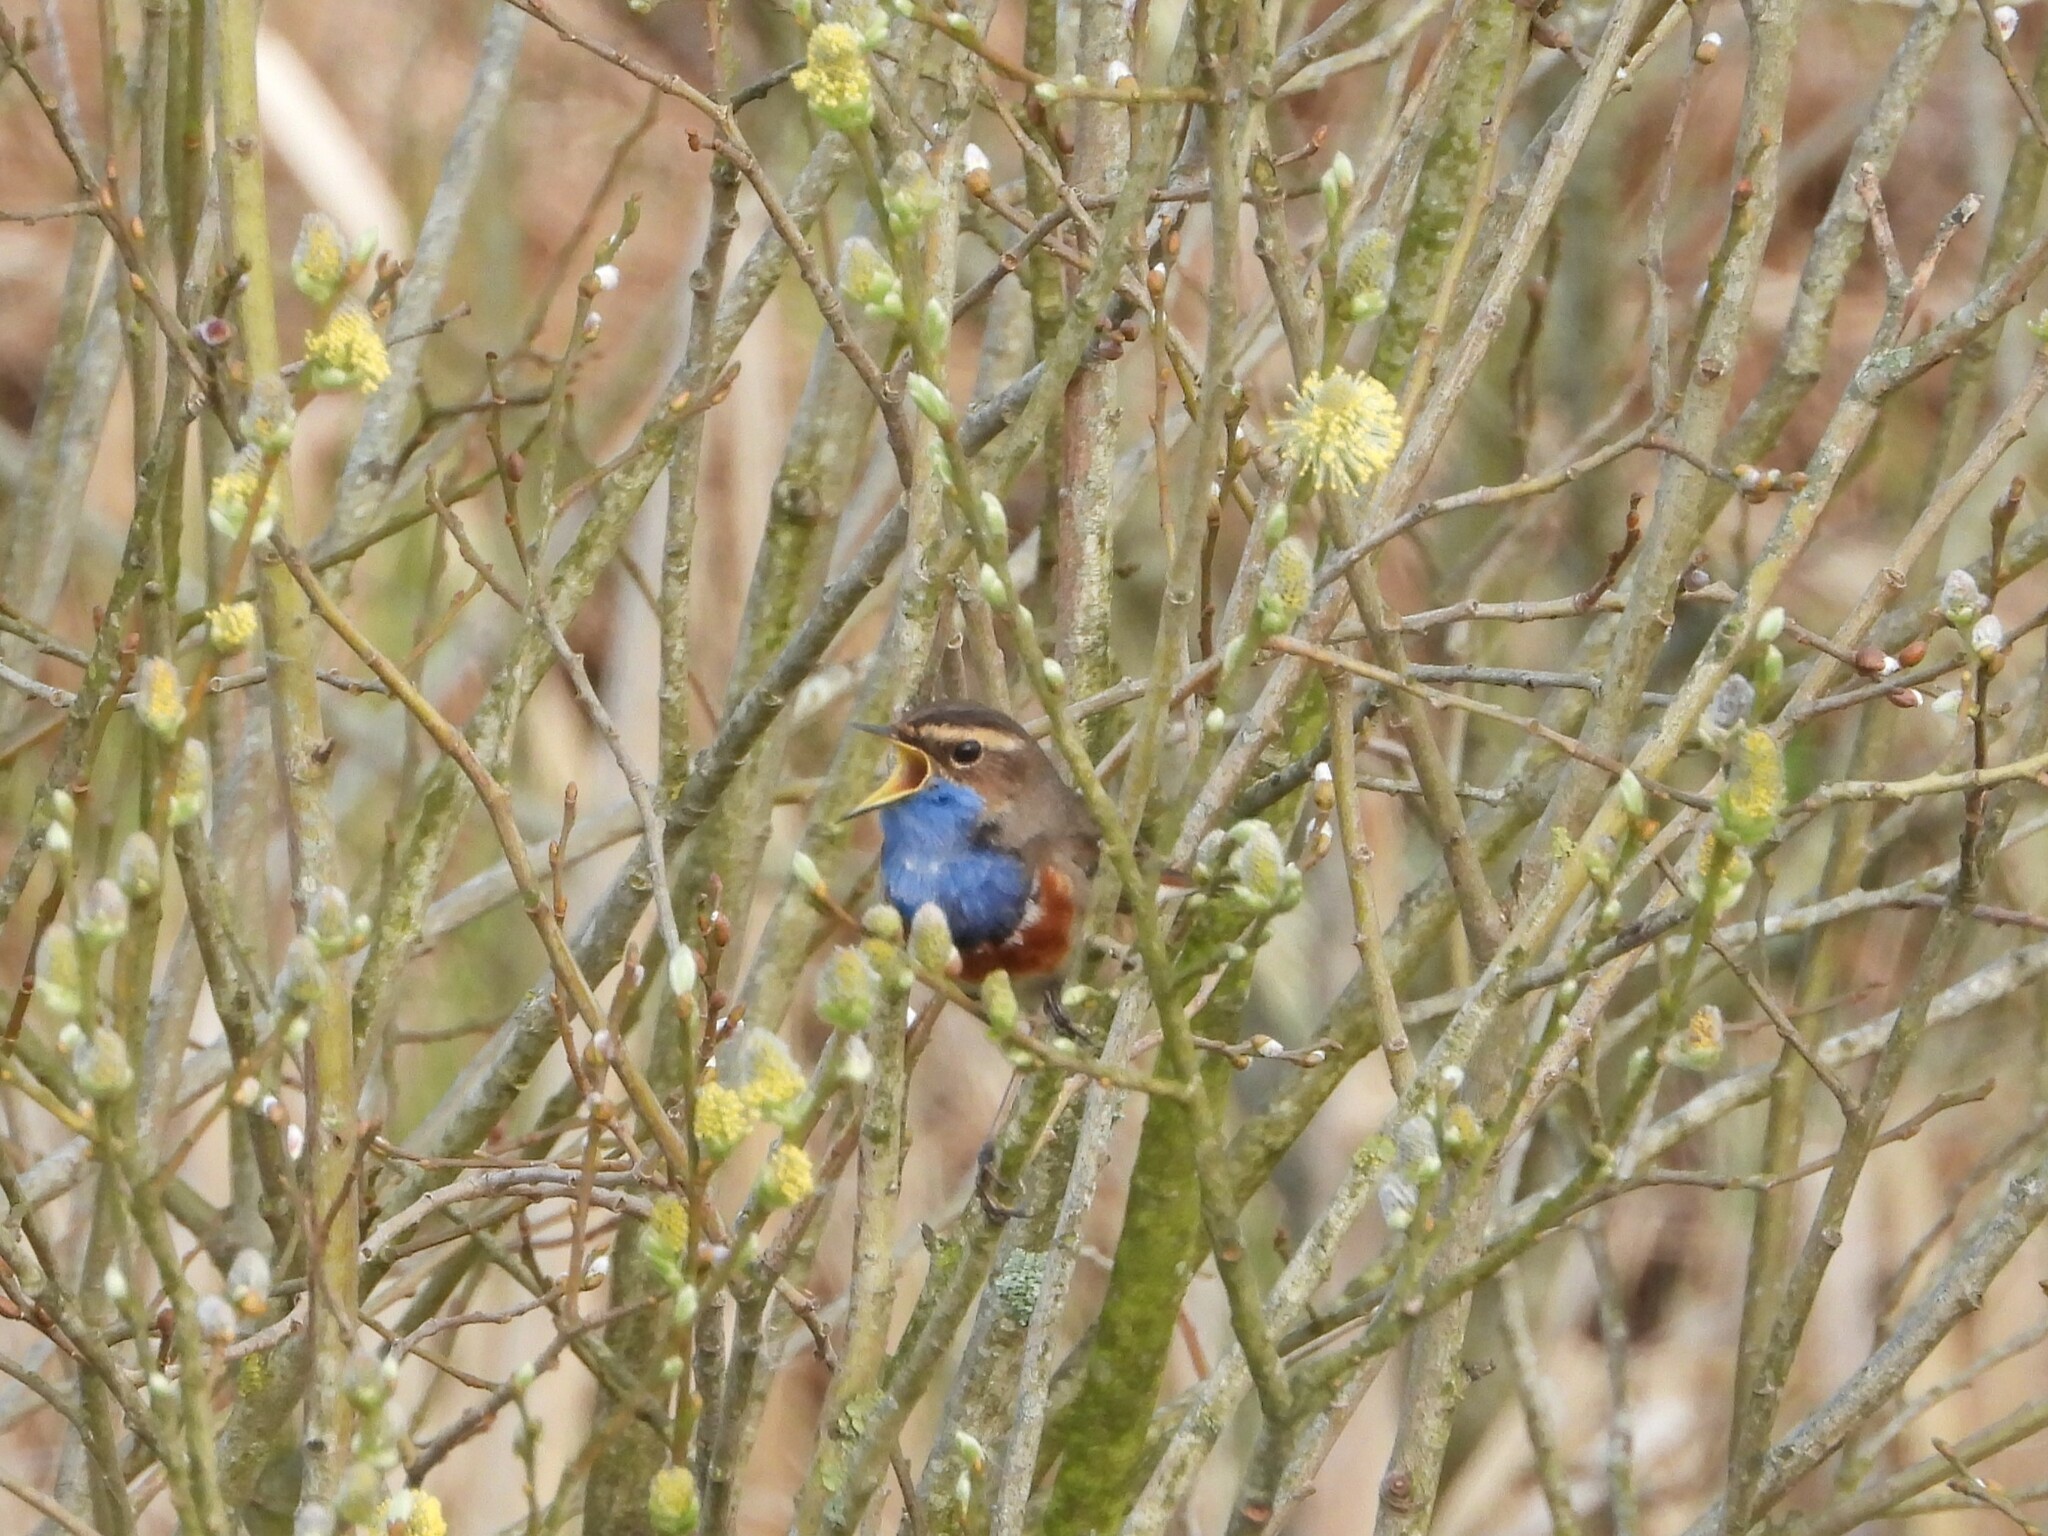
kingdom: Animalia
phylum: Chordata
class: Aves
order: Passeriformes
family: Muscicapidae
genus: Luscinia
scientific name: Luscinia svecica
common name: Bluethroat
